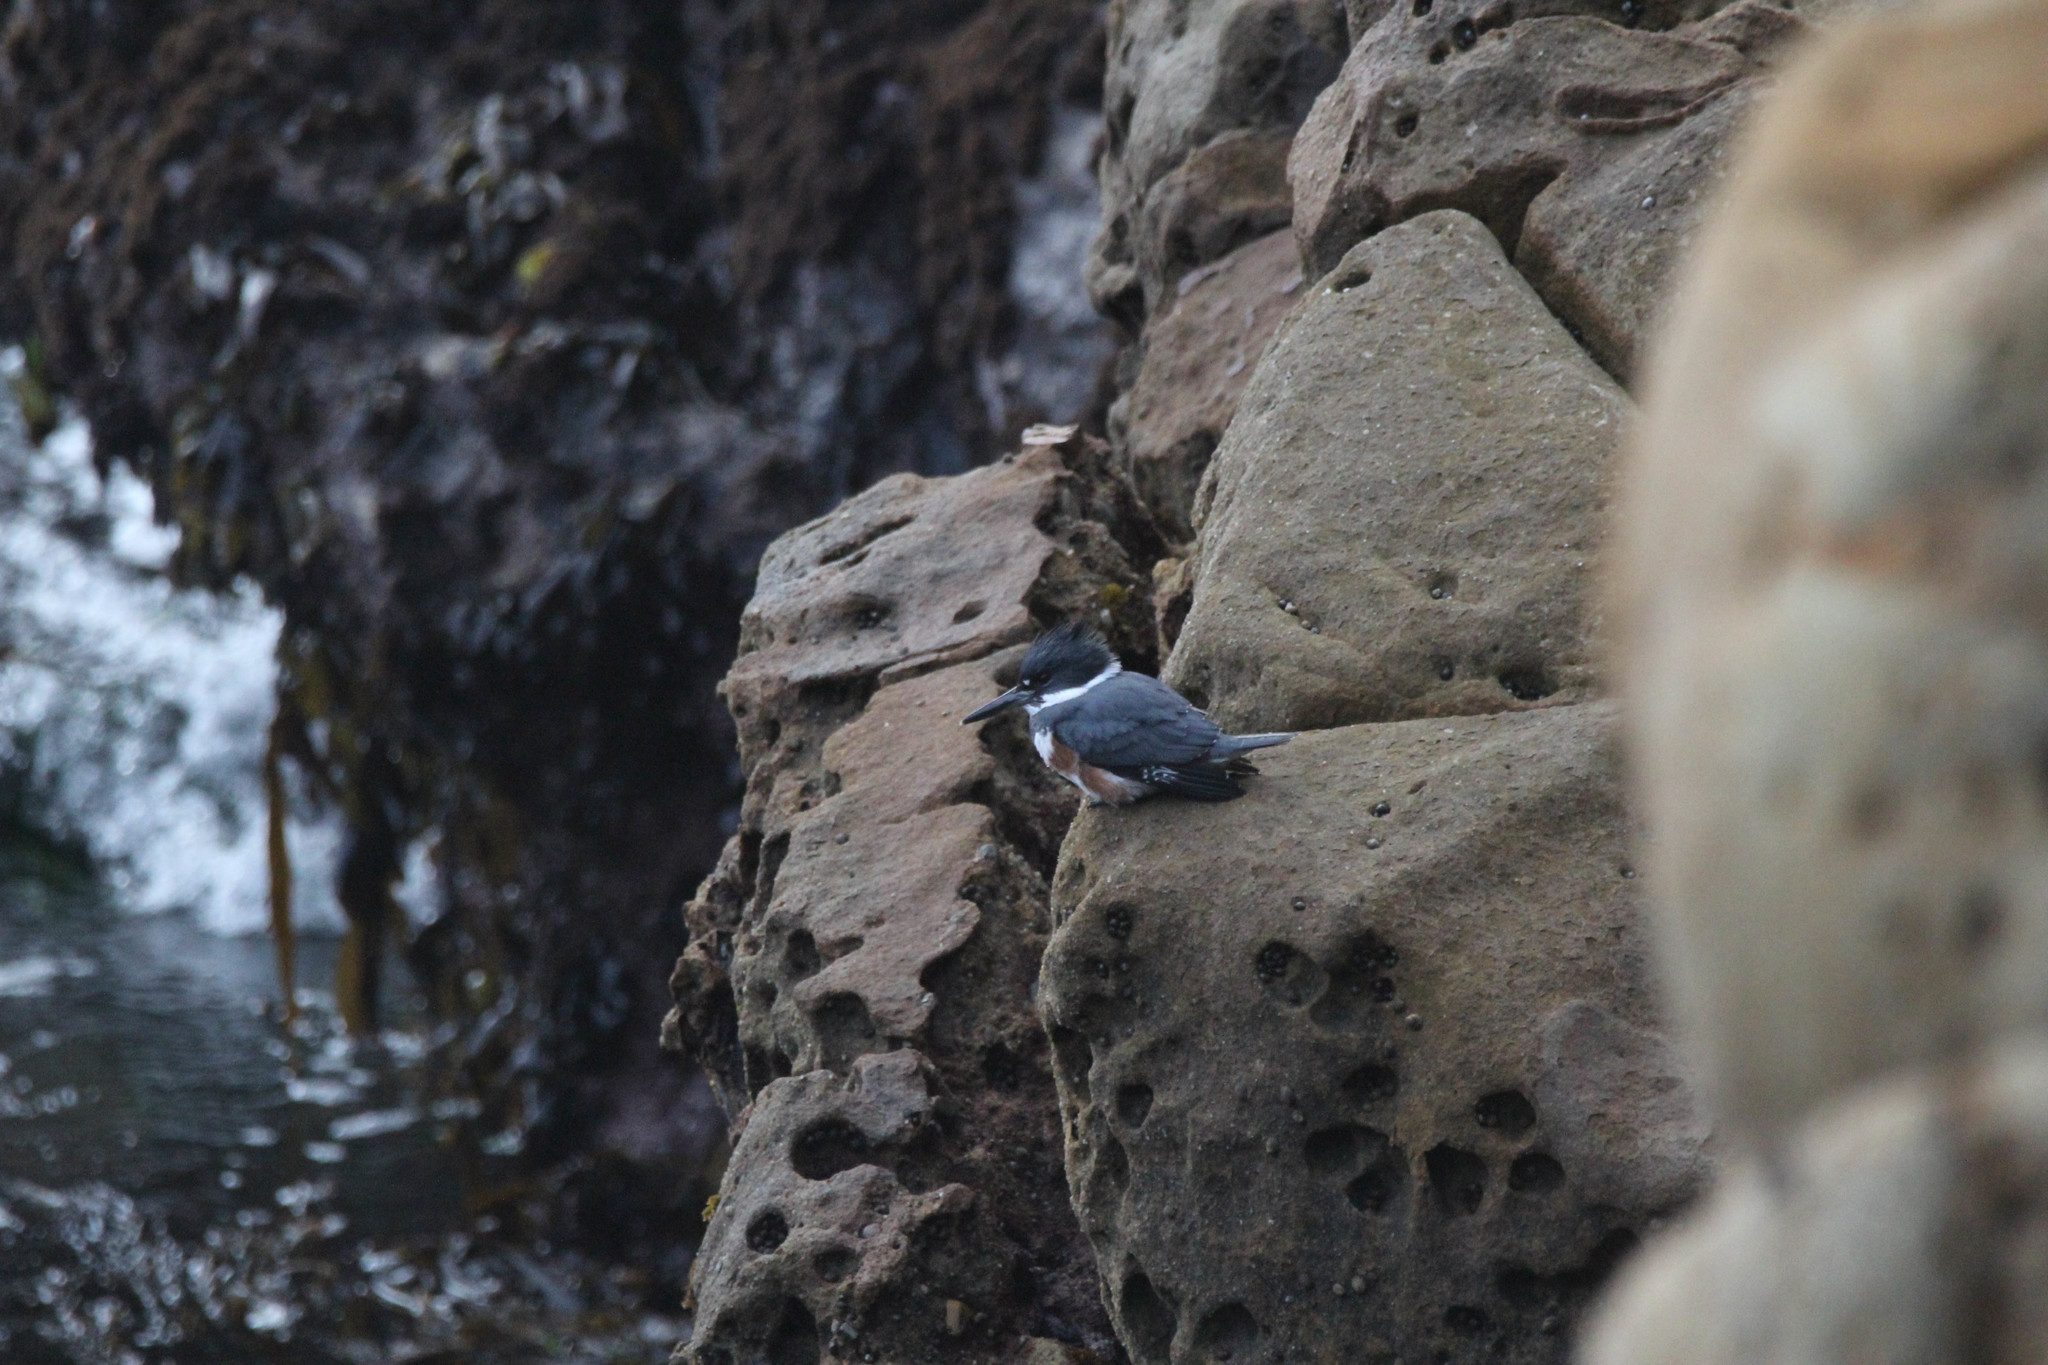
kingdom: Animalia
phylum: Chordata
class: Aves
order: Coraciiformes
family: Alcedinidae
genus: Megaceryle
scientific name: Megaceryle alcyon
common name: Belted kingfisher
